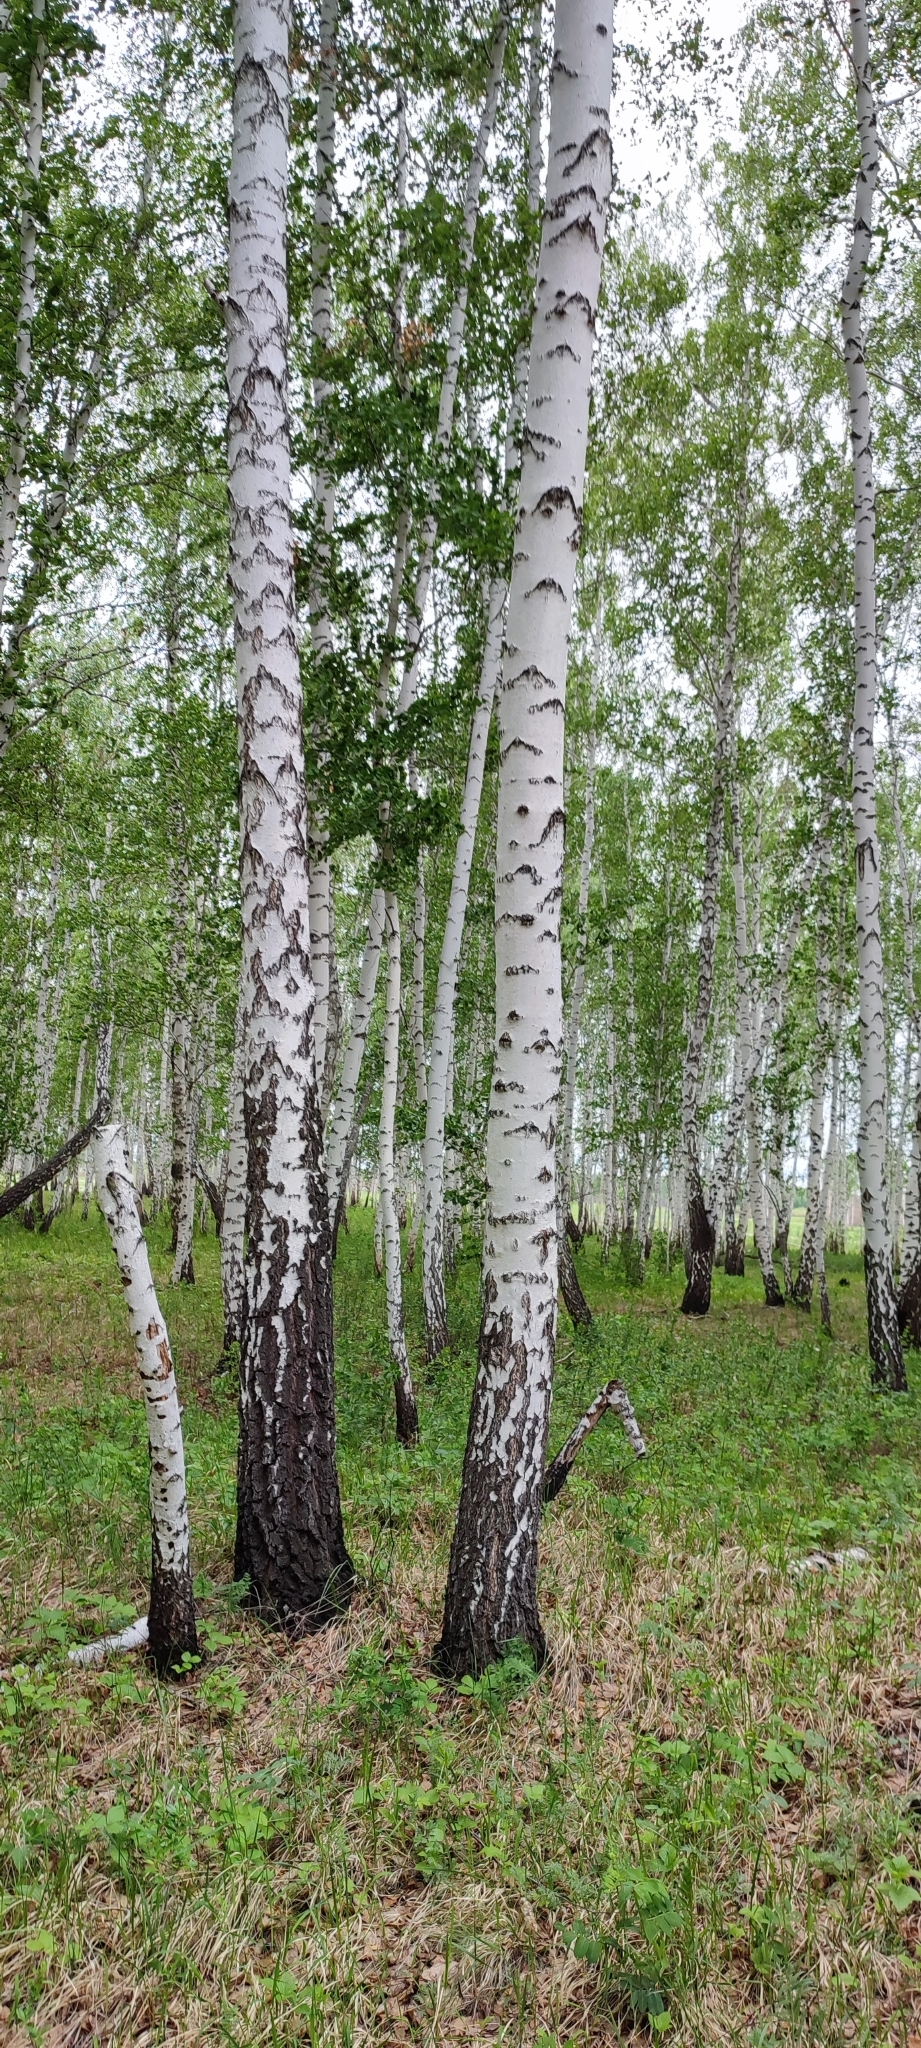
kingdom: Plantae
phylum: Tracheophyta
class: Magnoliopsida
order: Fagales
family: Betulaceae
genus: Betula
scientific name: Betula pendula
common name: Silver birch
